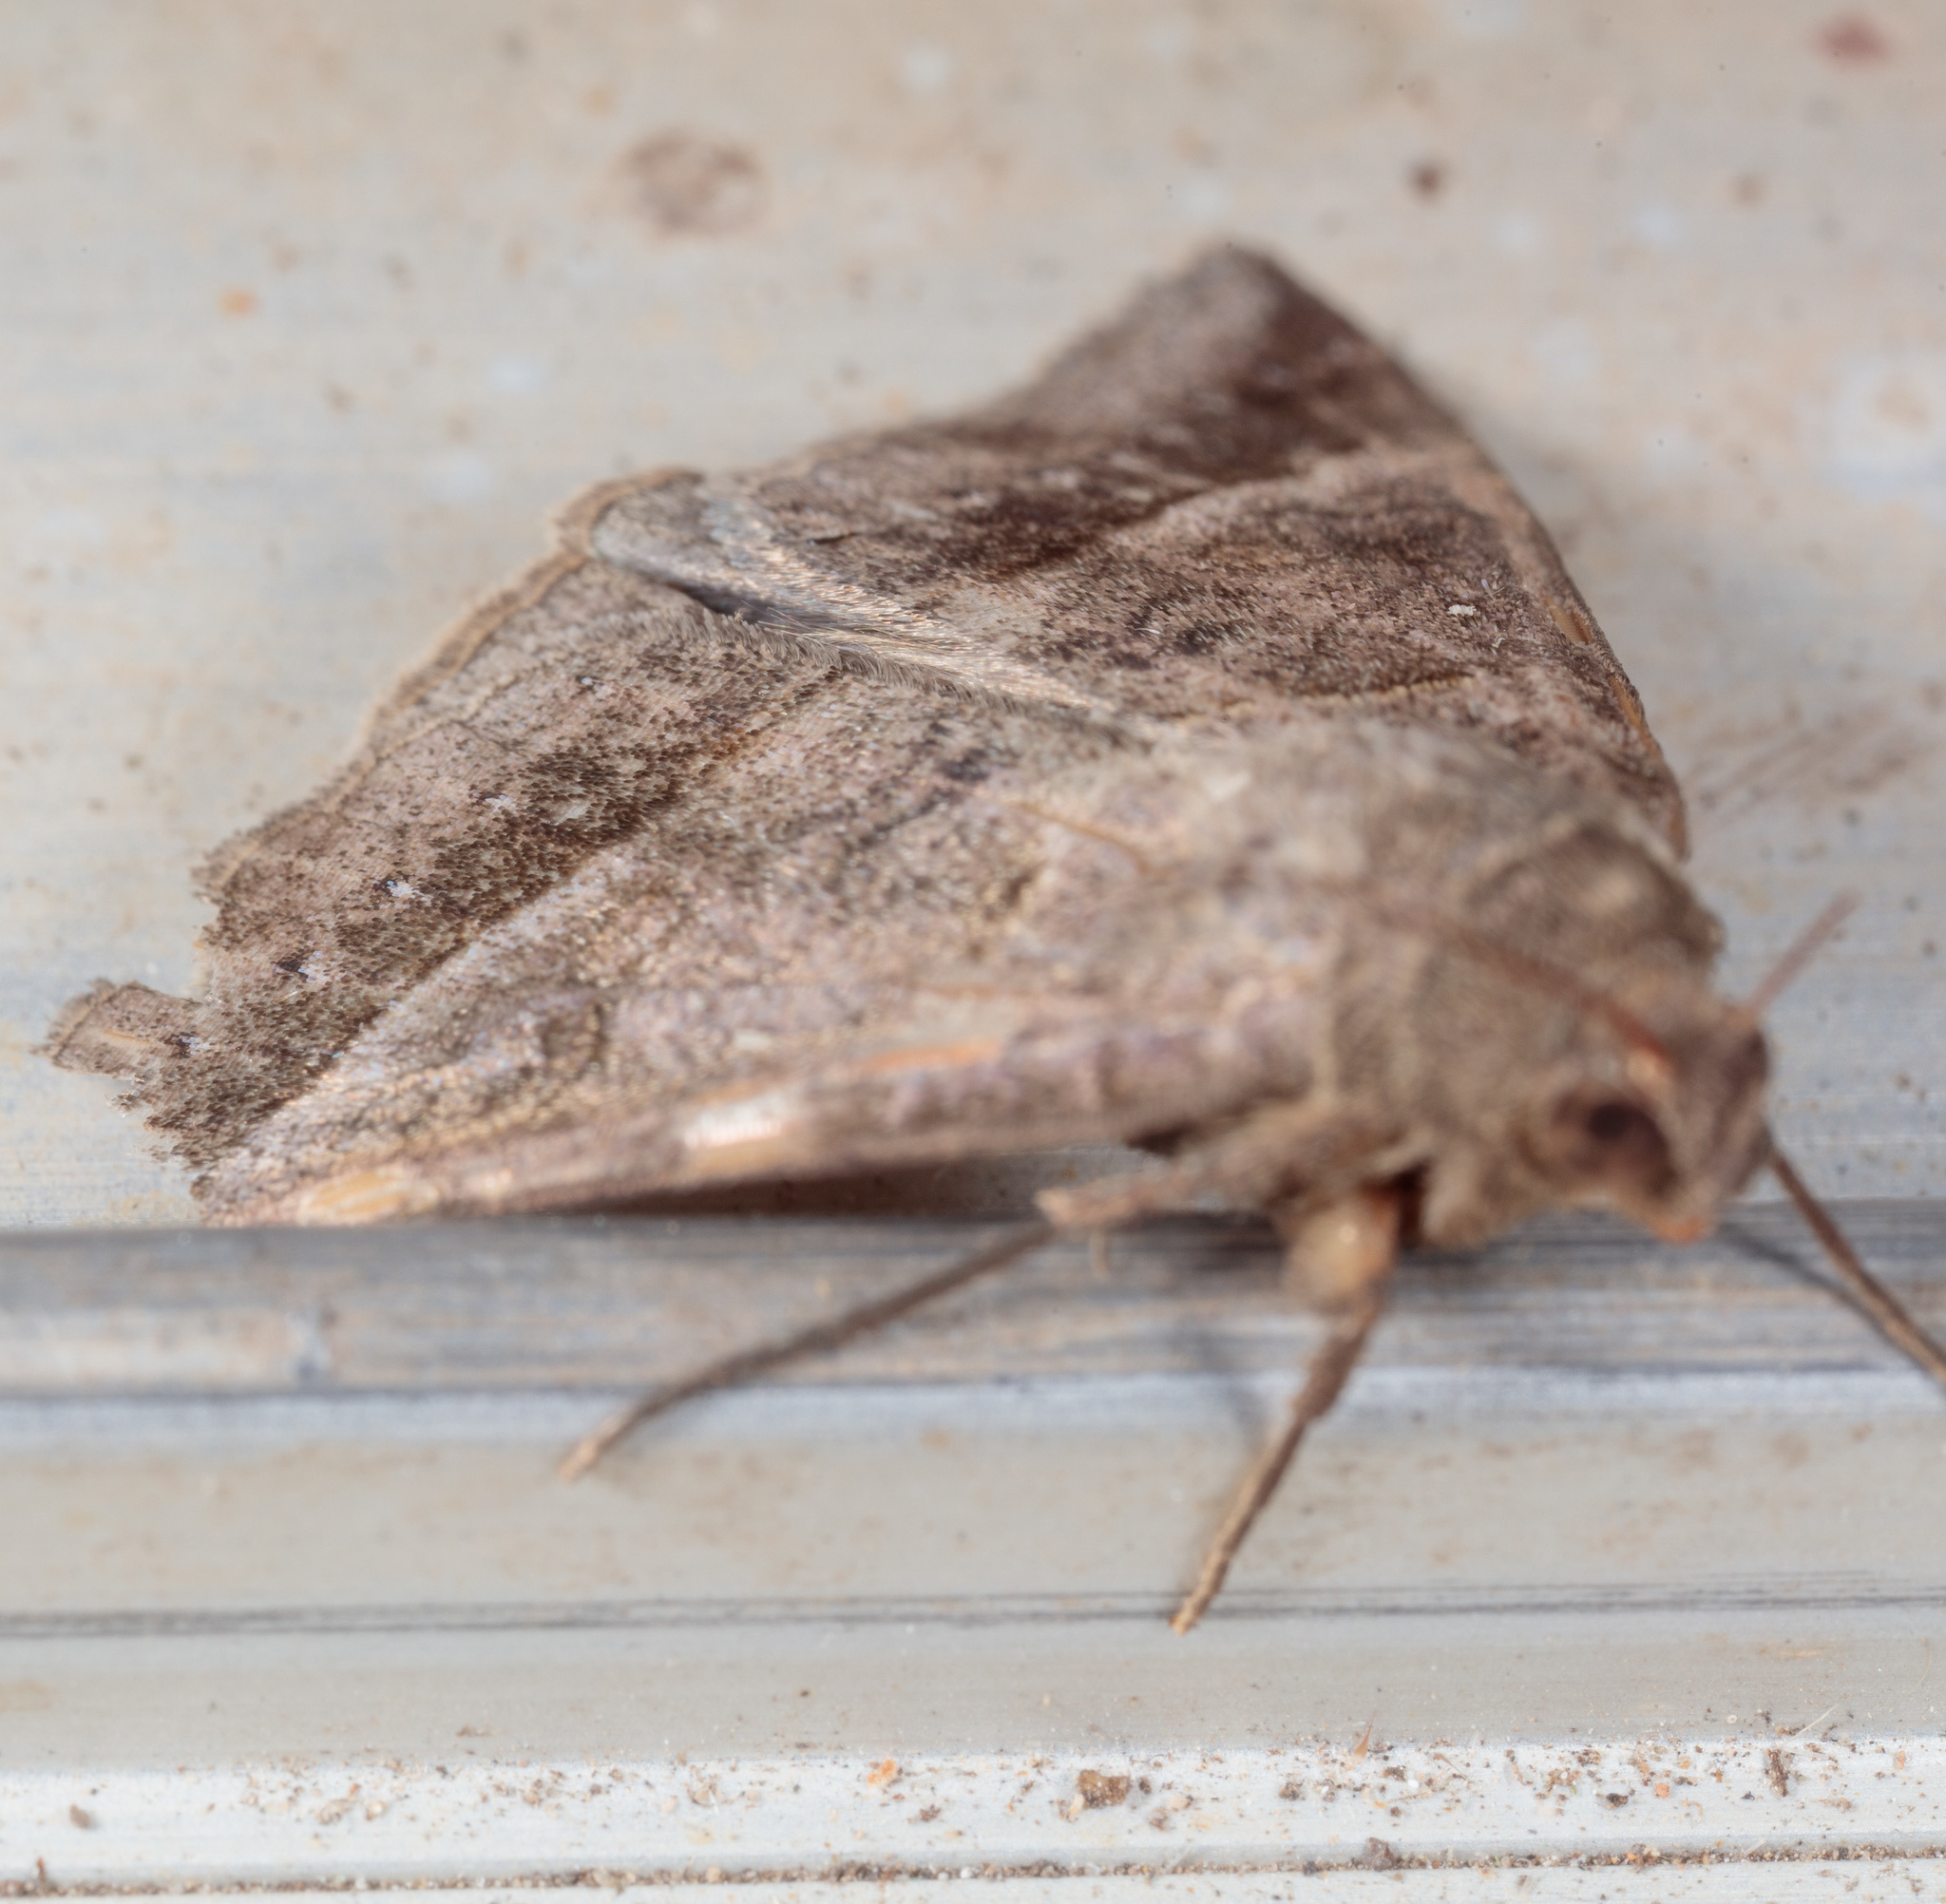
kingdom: Animalia
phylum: Arthropoda
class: Insecta
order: Lepidoptera
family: Erebidae
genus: Mocis
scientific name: Mocis disseverans
